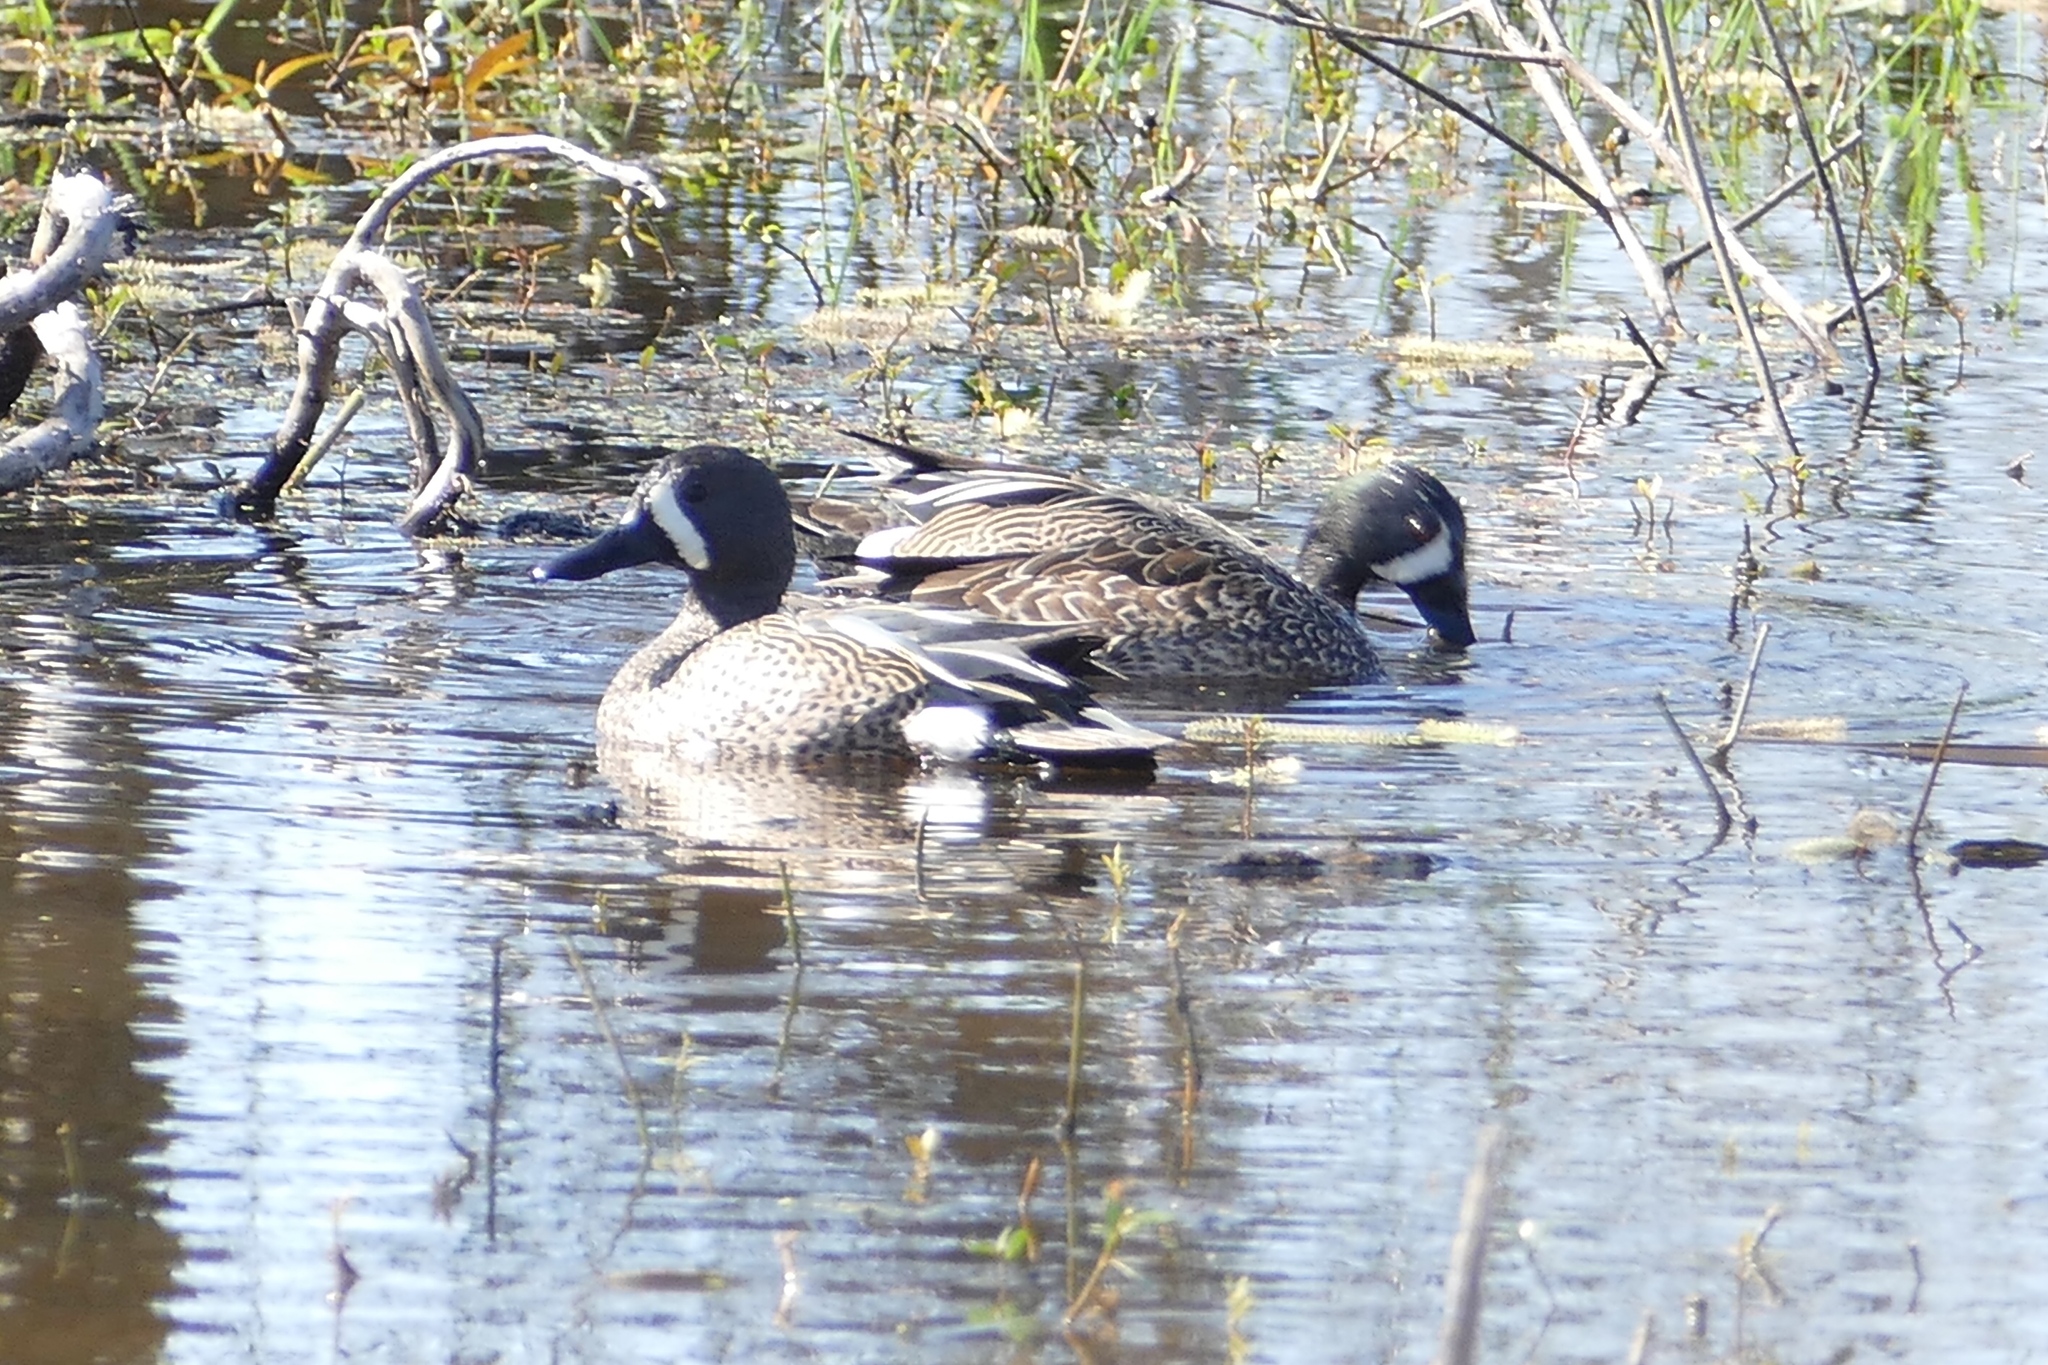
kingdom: Animalia
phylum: Chordata
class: Aves
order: Anseriformes
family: Anatidae
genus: Spatula
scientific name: Spatula discors
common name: Blue-winged teal
